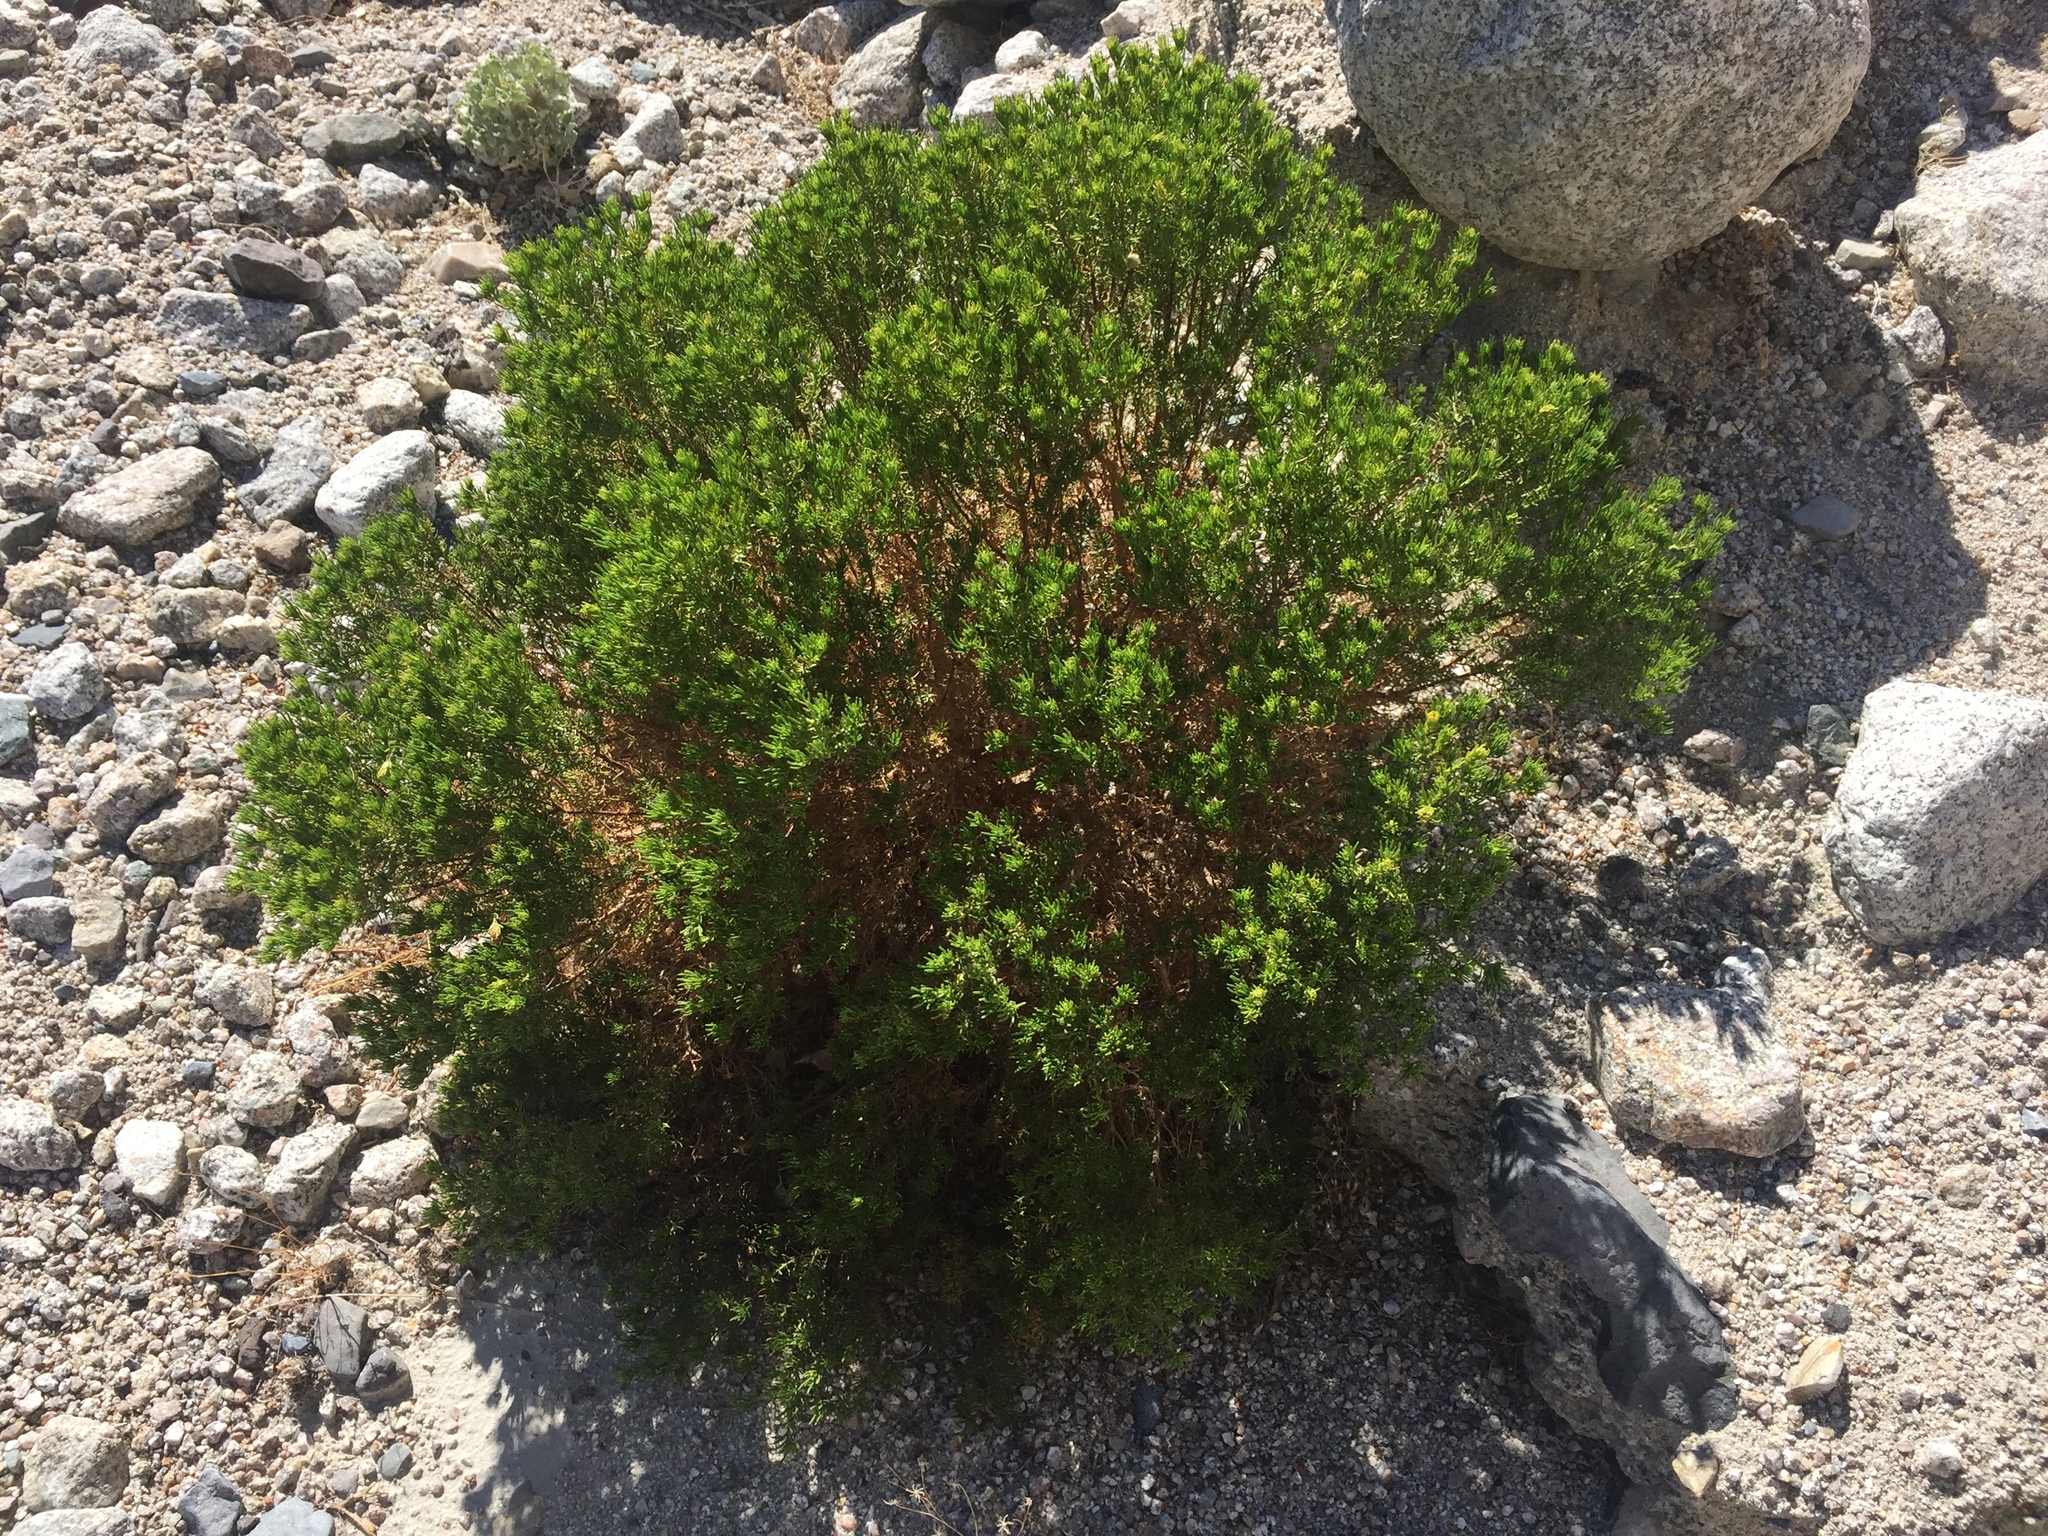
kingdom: Plantae
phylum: Tracheophyta
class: Magnoliopsida
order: Asterales
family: Asteraceae
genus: Peucephyllum
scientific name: Peucephyllum schottii
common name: Pygmy-cedar
